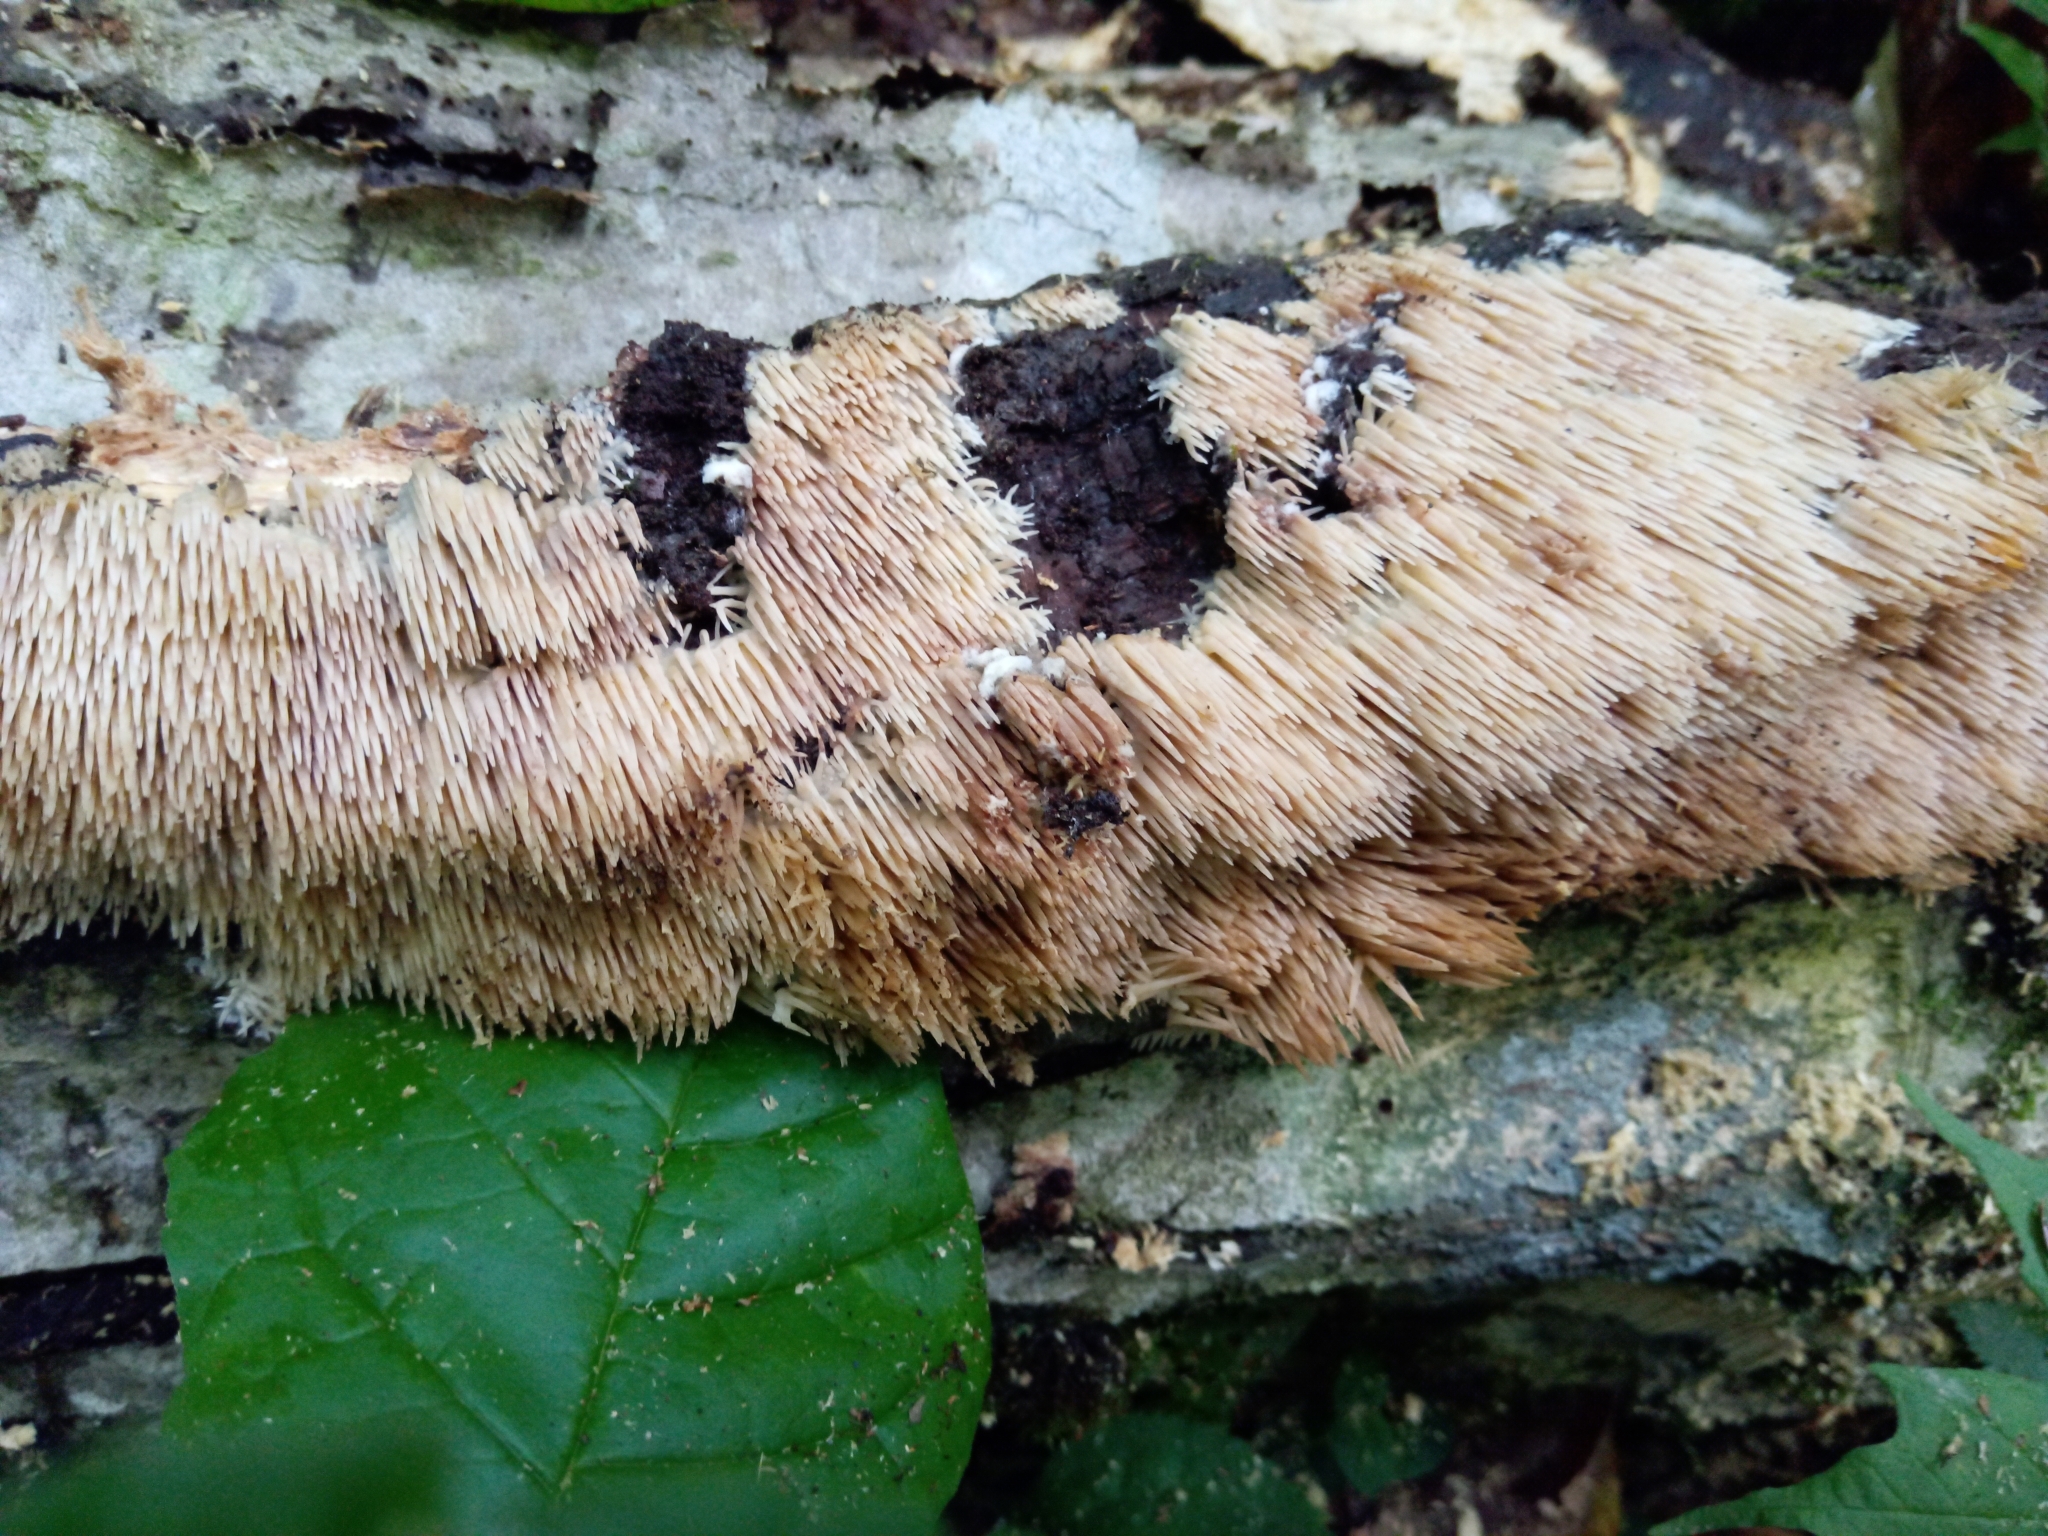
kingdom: Fungi
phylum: Basidiomycota
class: Agaricomycetes
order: Agaricales
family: Radulomycetaceae
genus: Radulomyces
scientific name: Radulomyces copelandii
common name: Asian beauty
